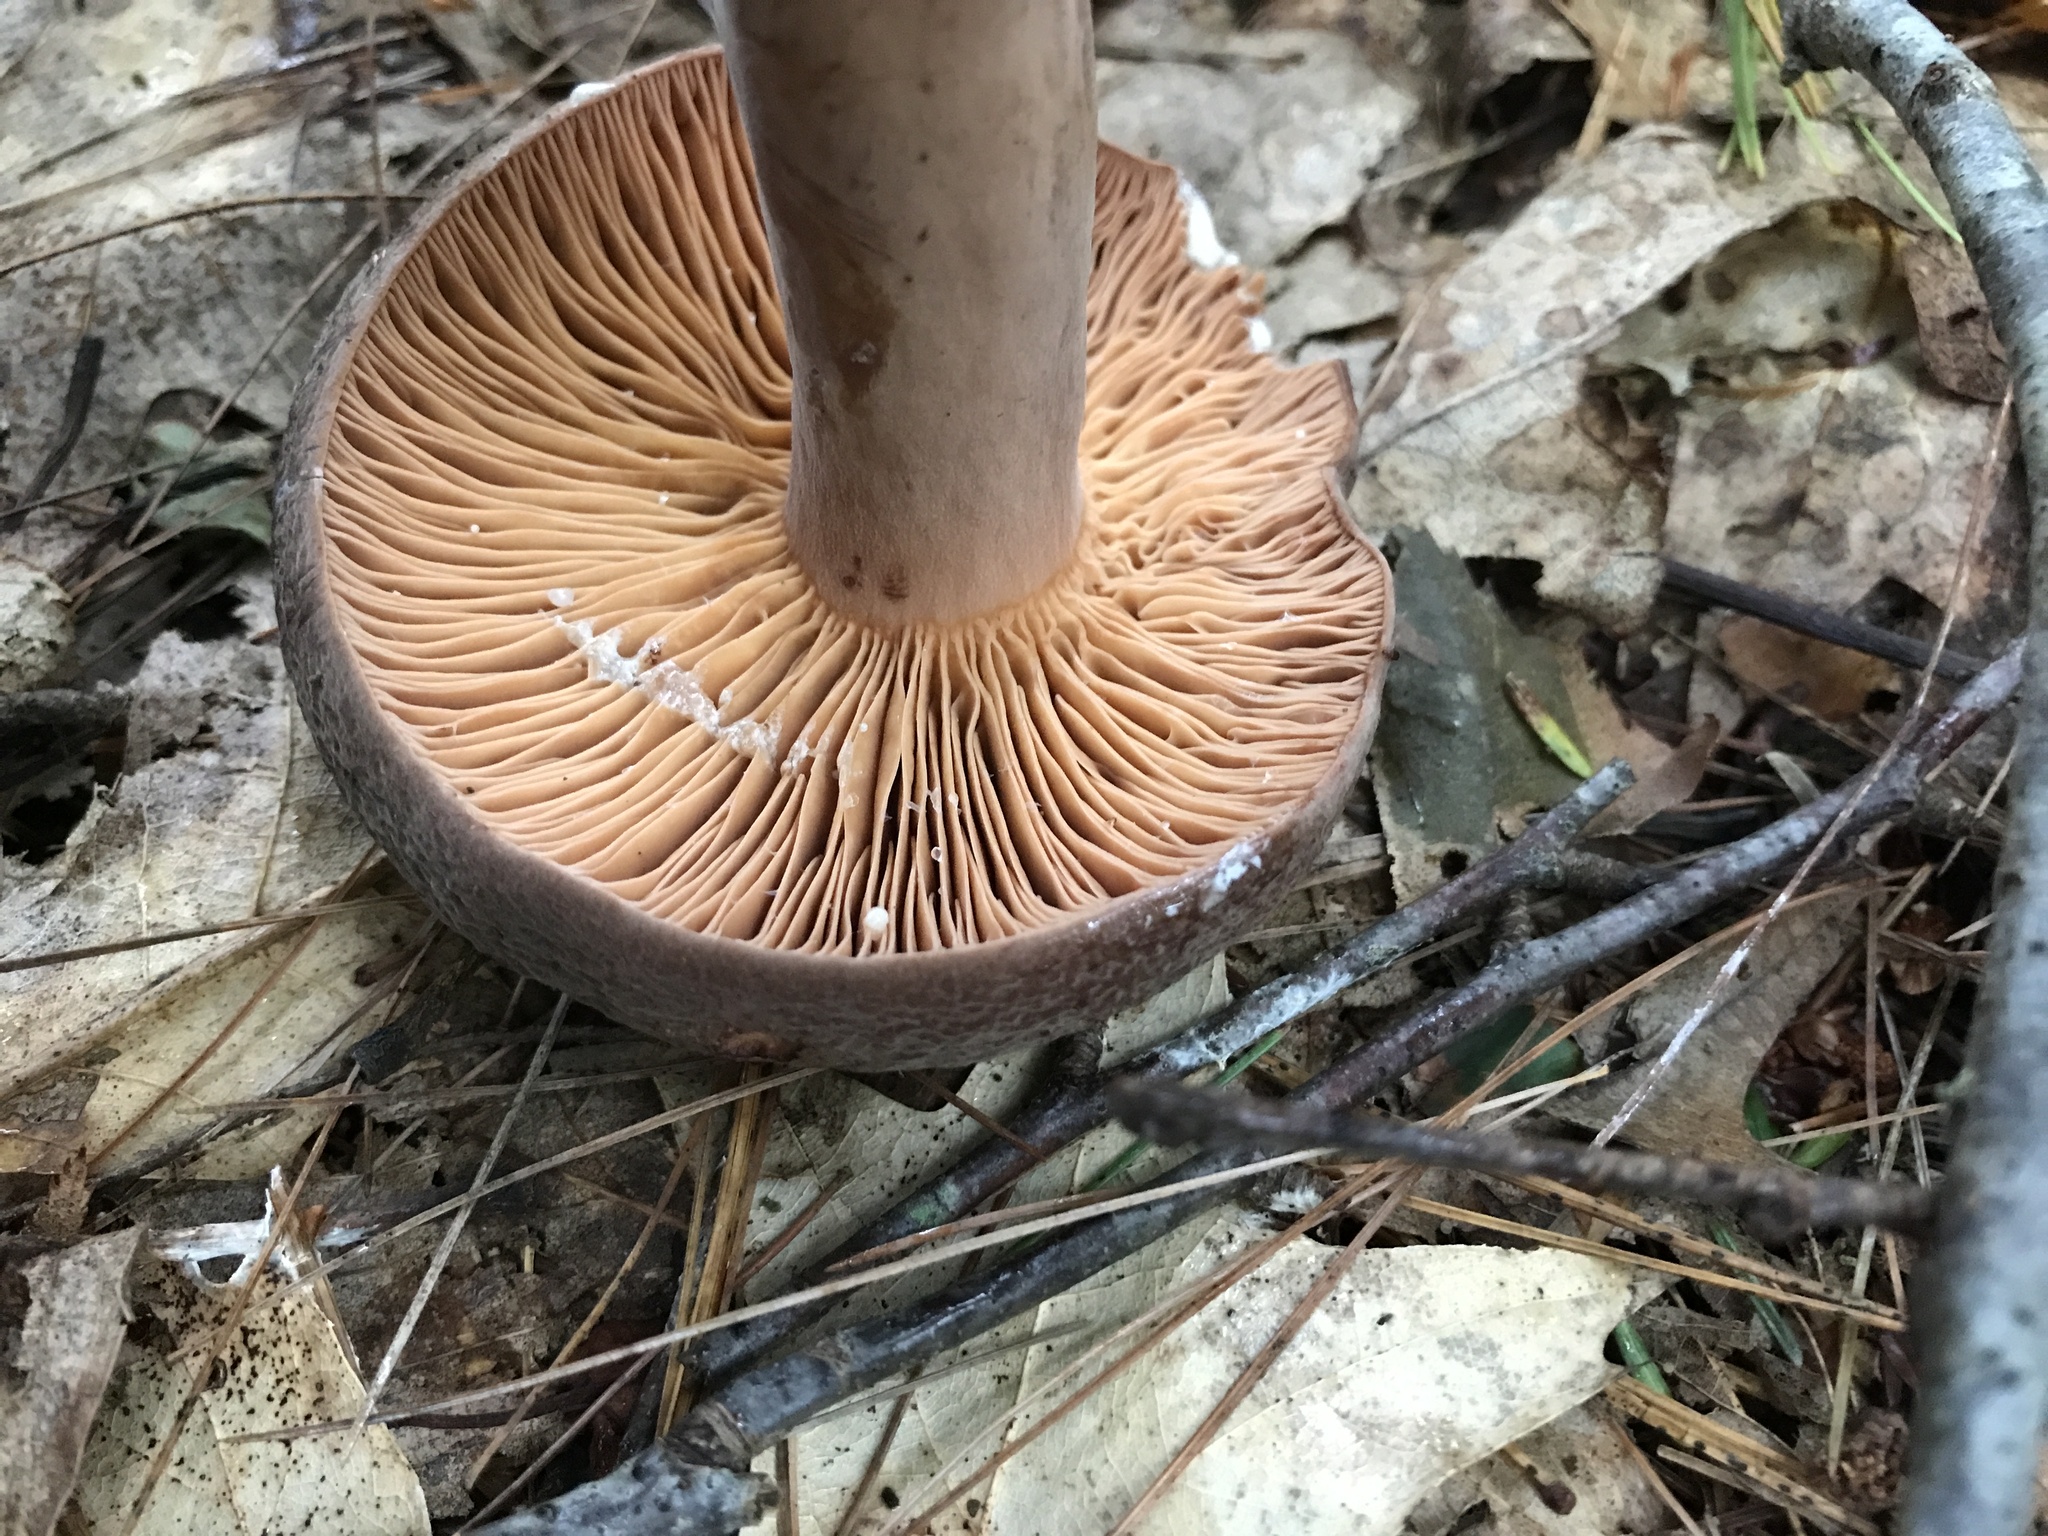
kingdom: Fungi
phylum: Basidiomycota
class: Agaricomycetes
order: Russulales
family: Russulaceae
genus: Lactarius
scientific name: Lactarius corrugis
